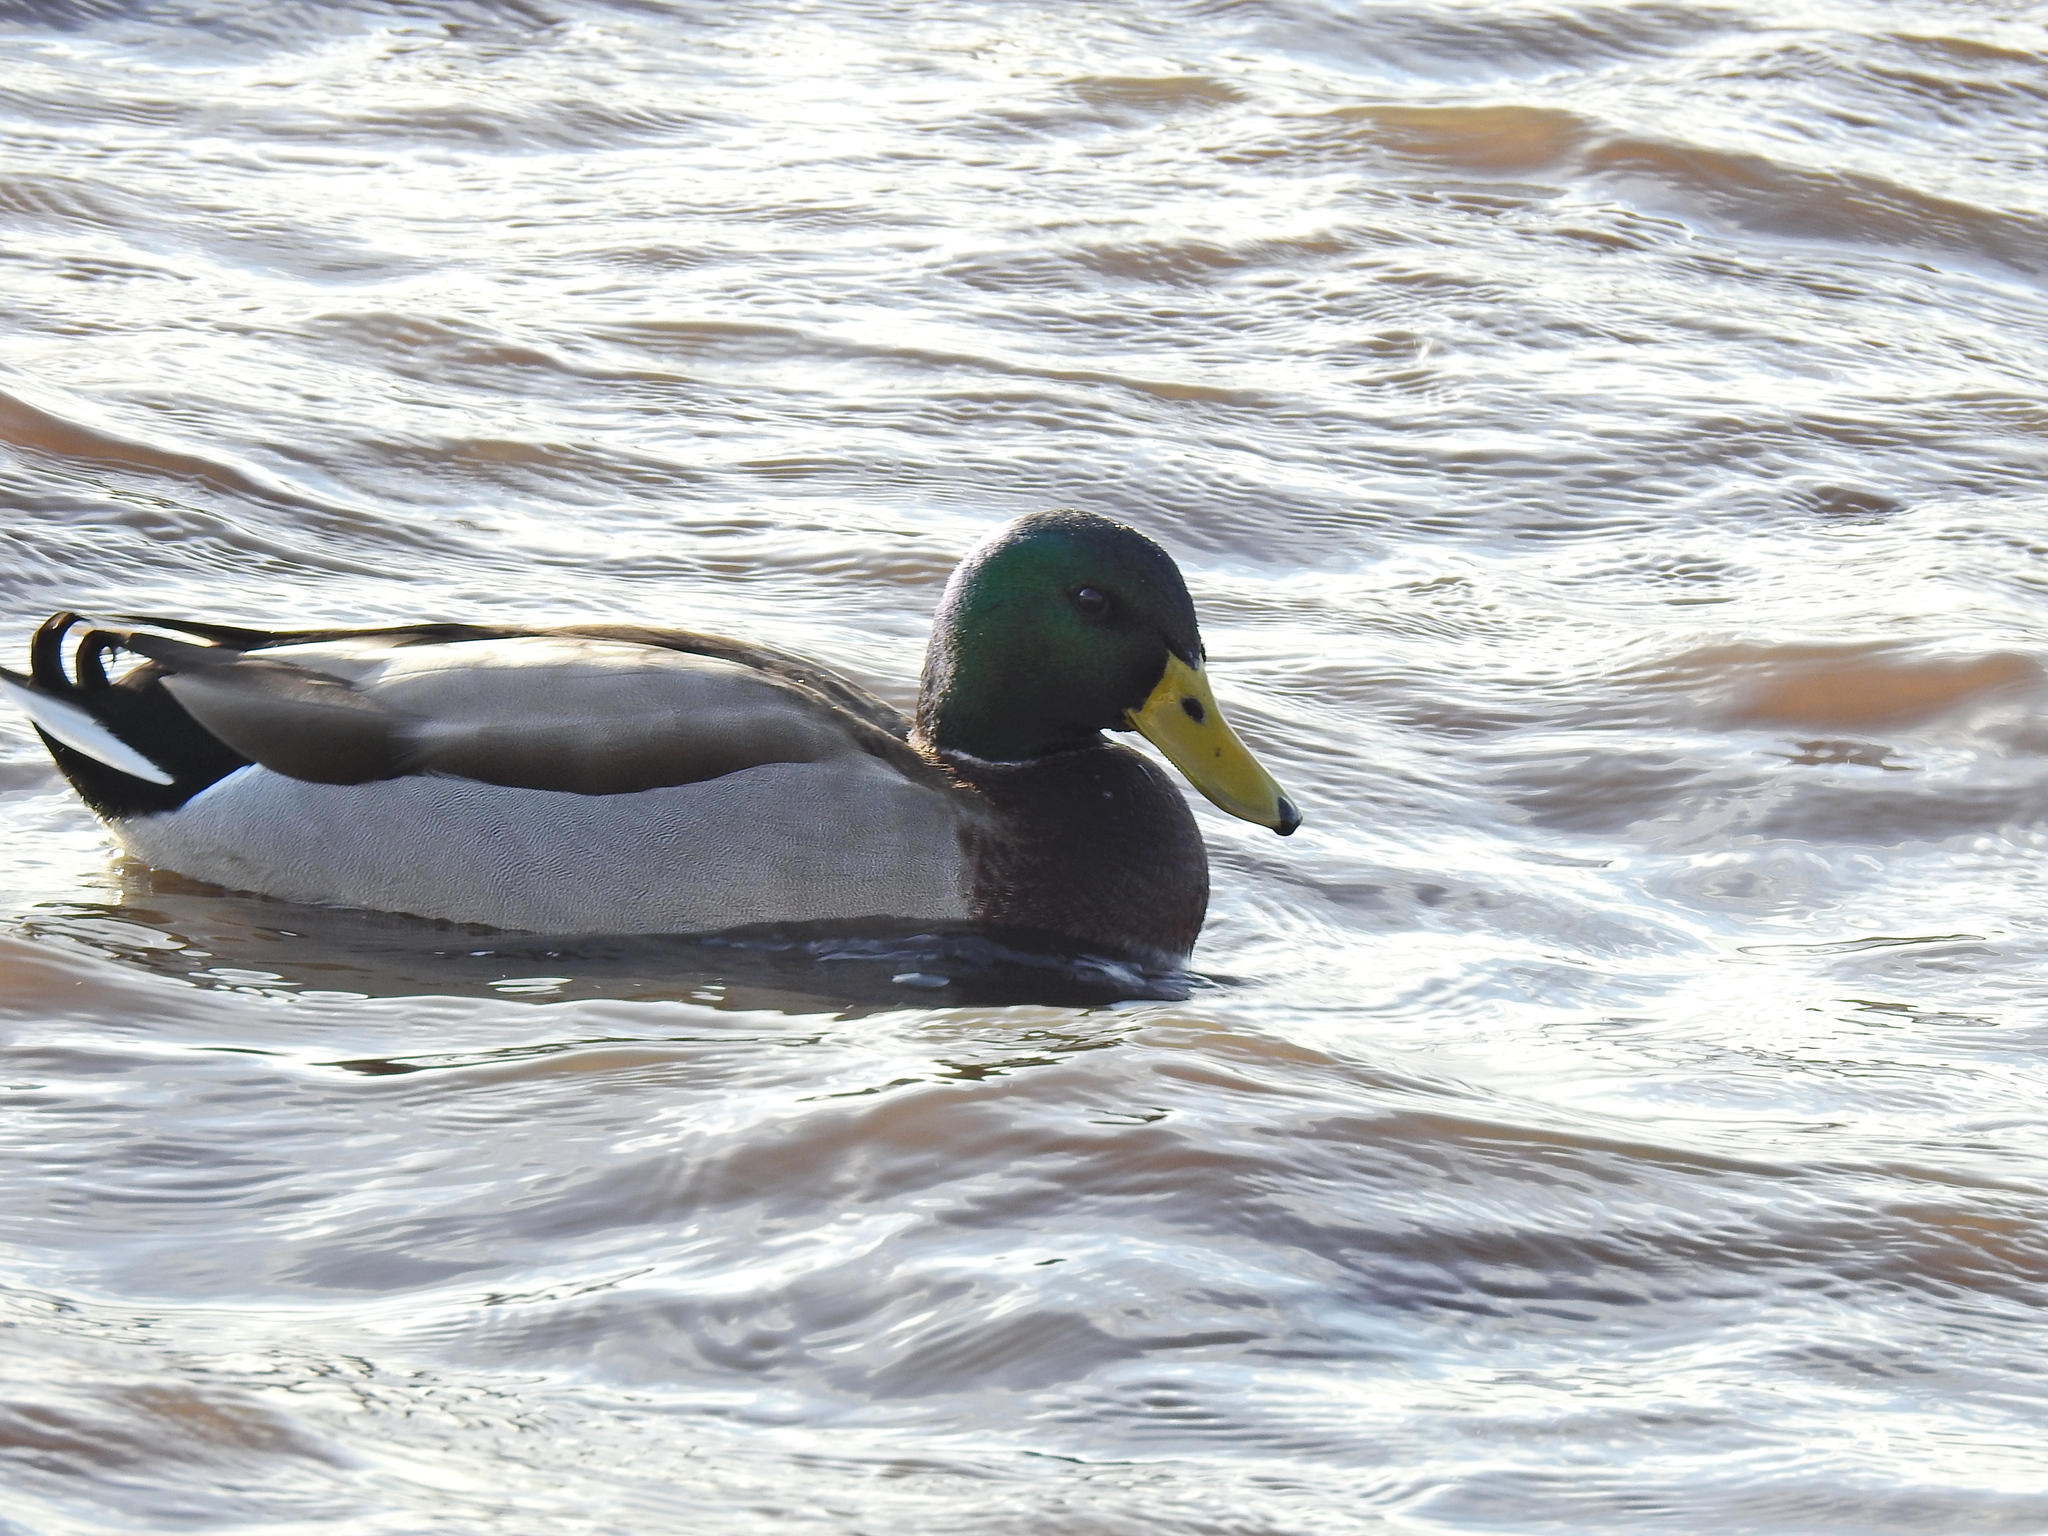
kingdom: Animalia
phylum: Chordata
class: Aves
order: Anseriformes
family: Anatidae
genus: Anas
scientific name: Anas platyrhynchos
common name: Mallard
